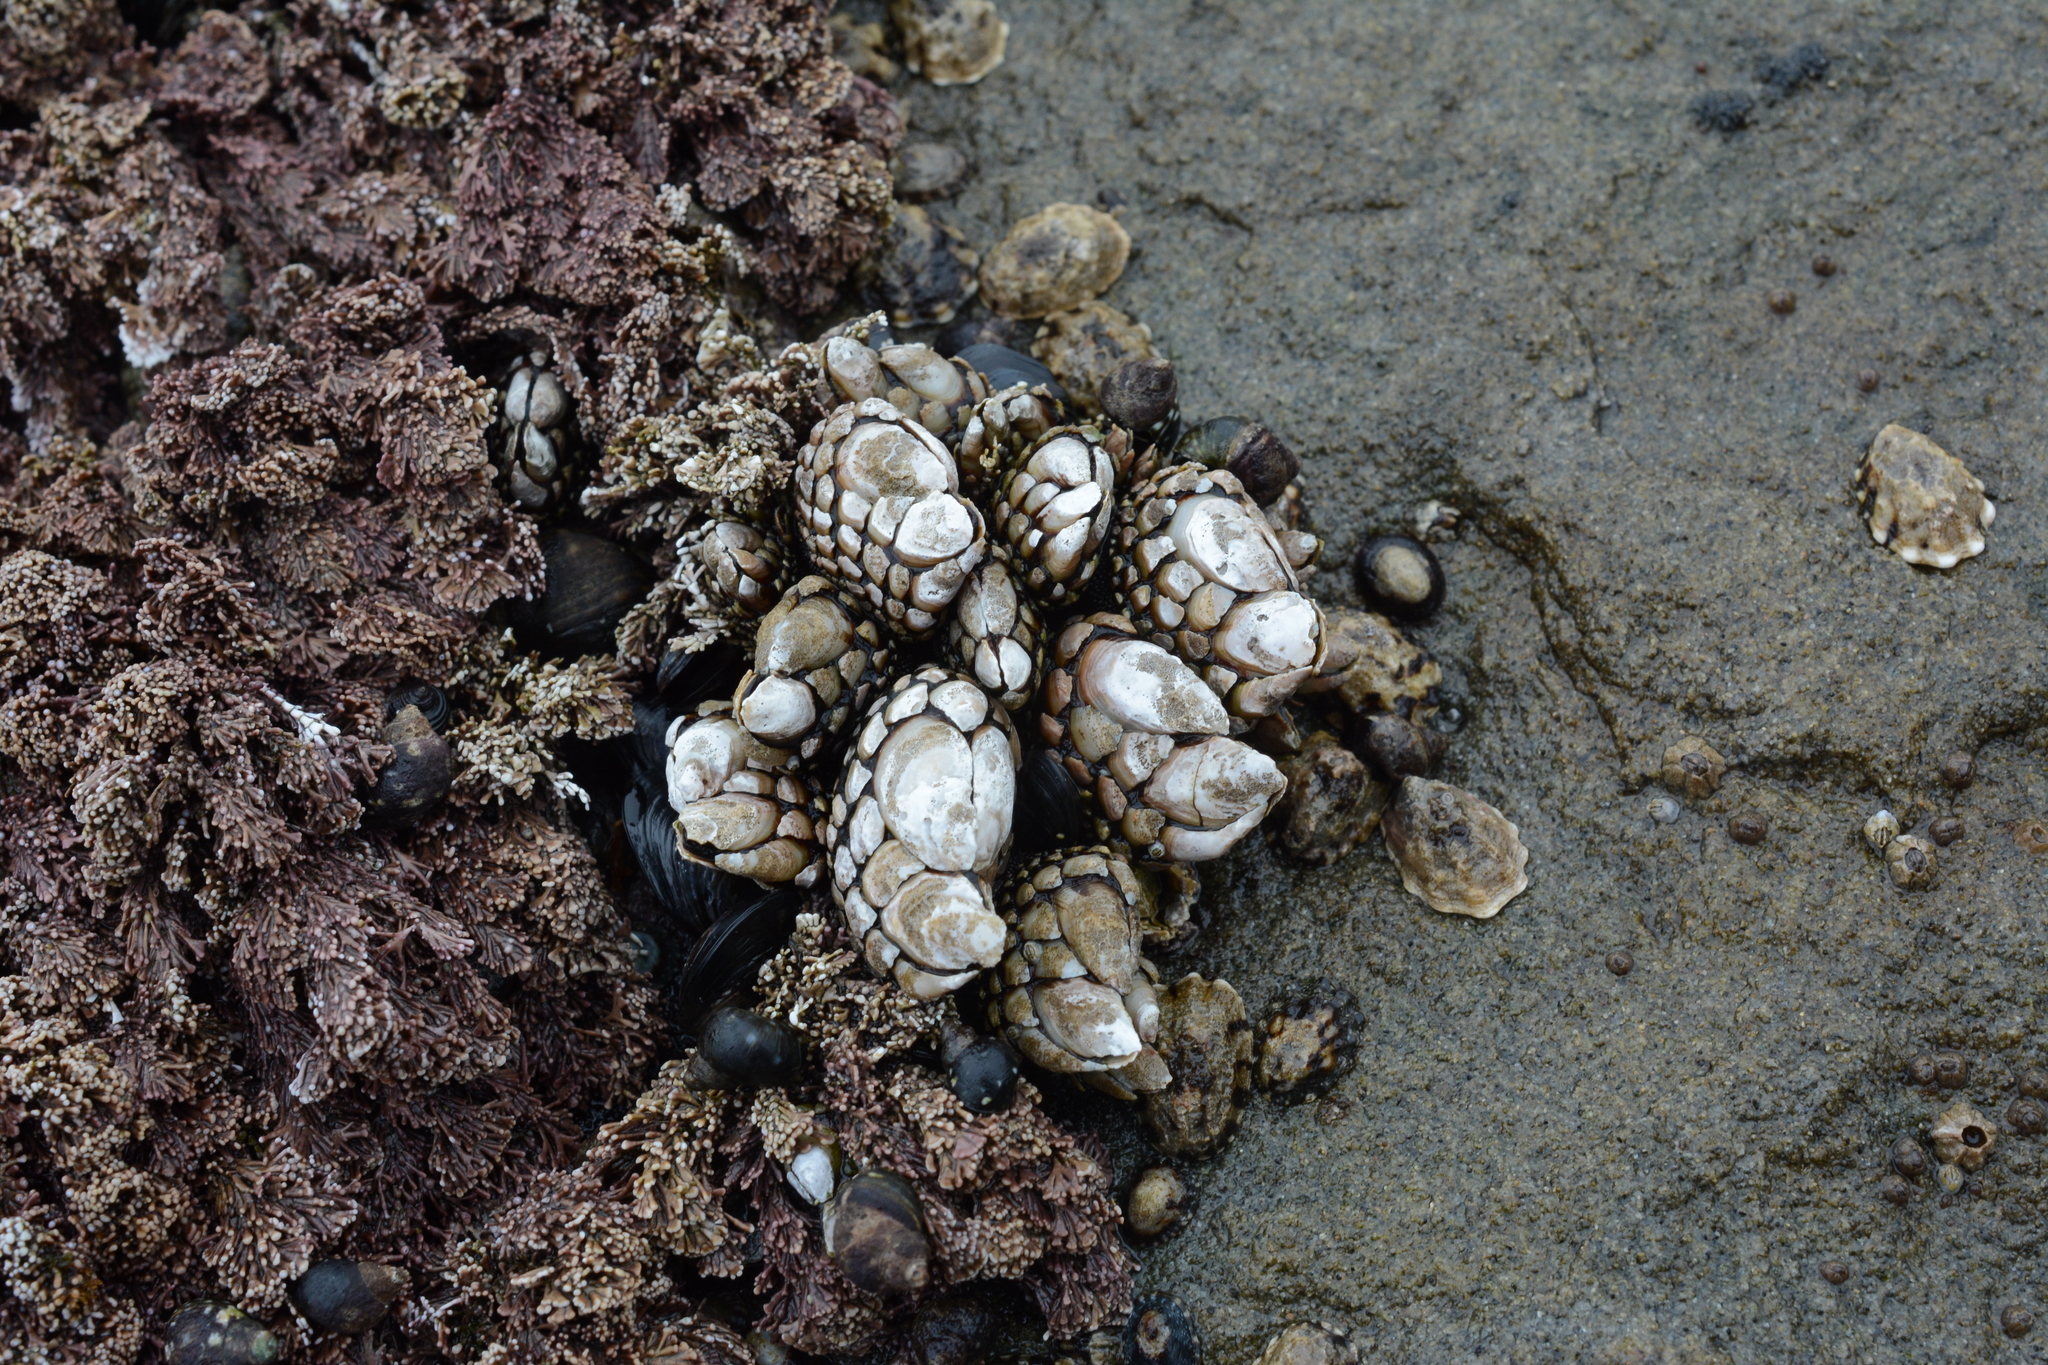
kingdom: Animalia
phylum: Arthropoda
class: Maxillopoda
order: Pedunculata
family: Pollicipedidae
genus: Pollicipes
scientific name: Pollicipes polymerus
